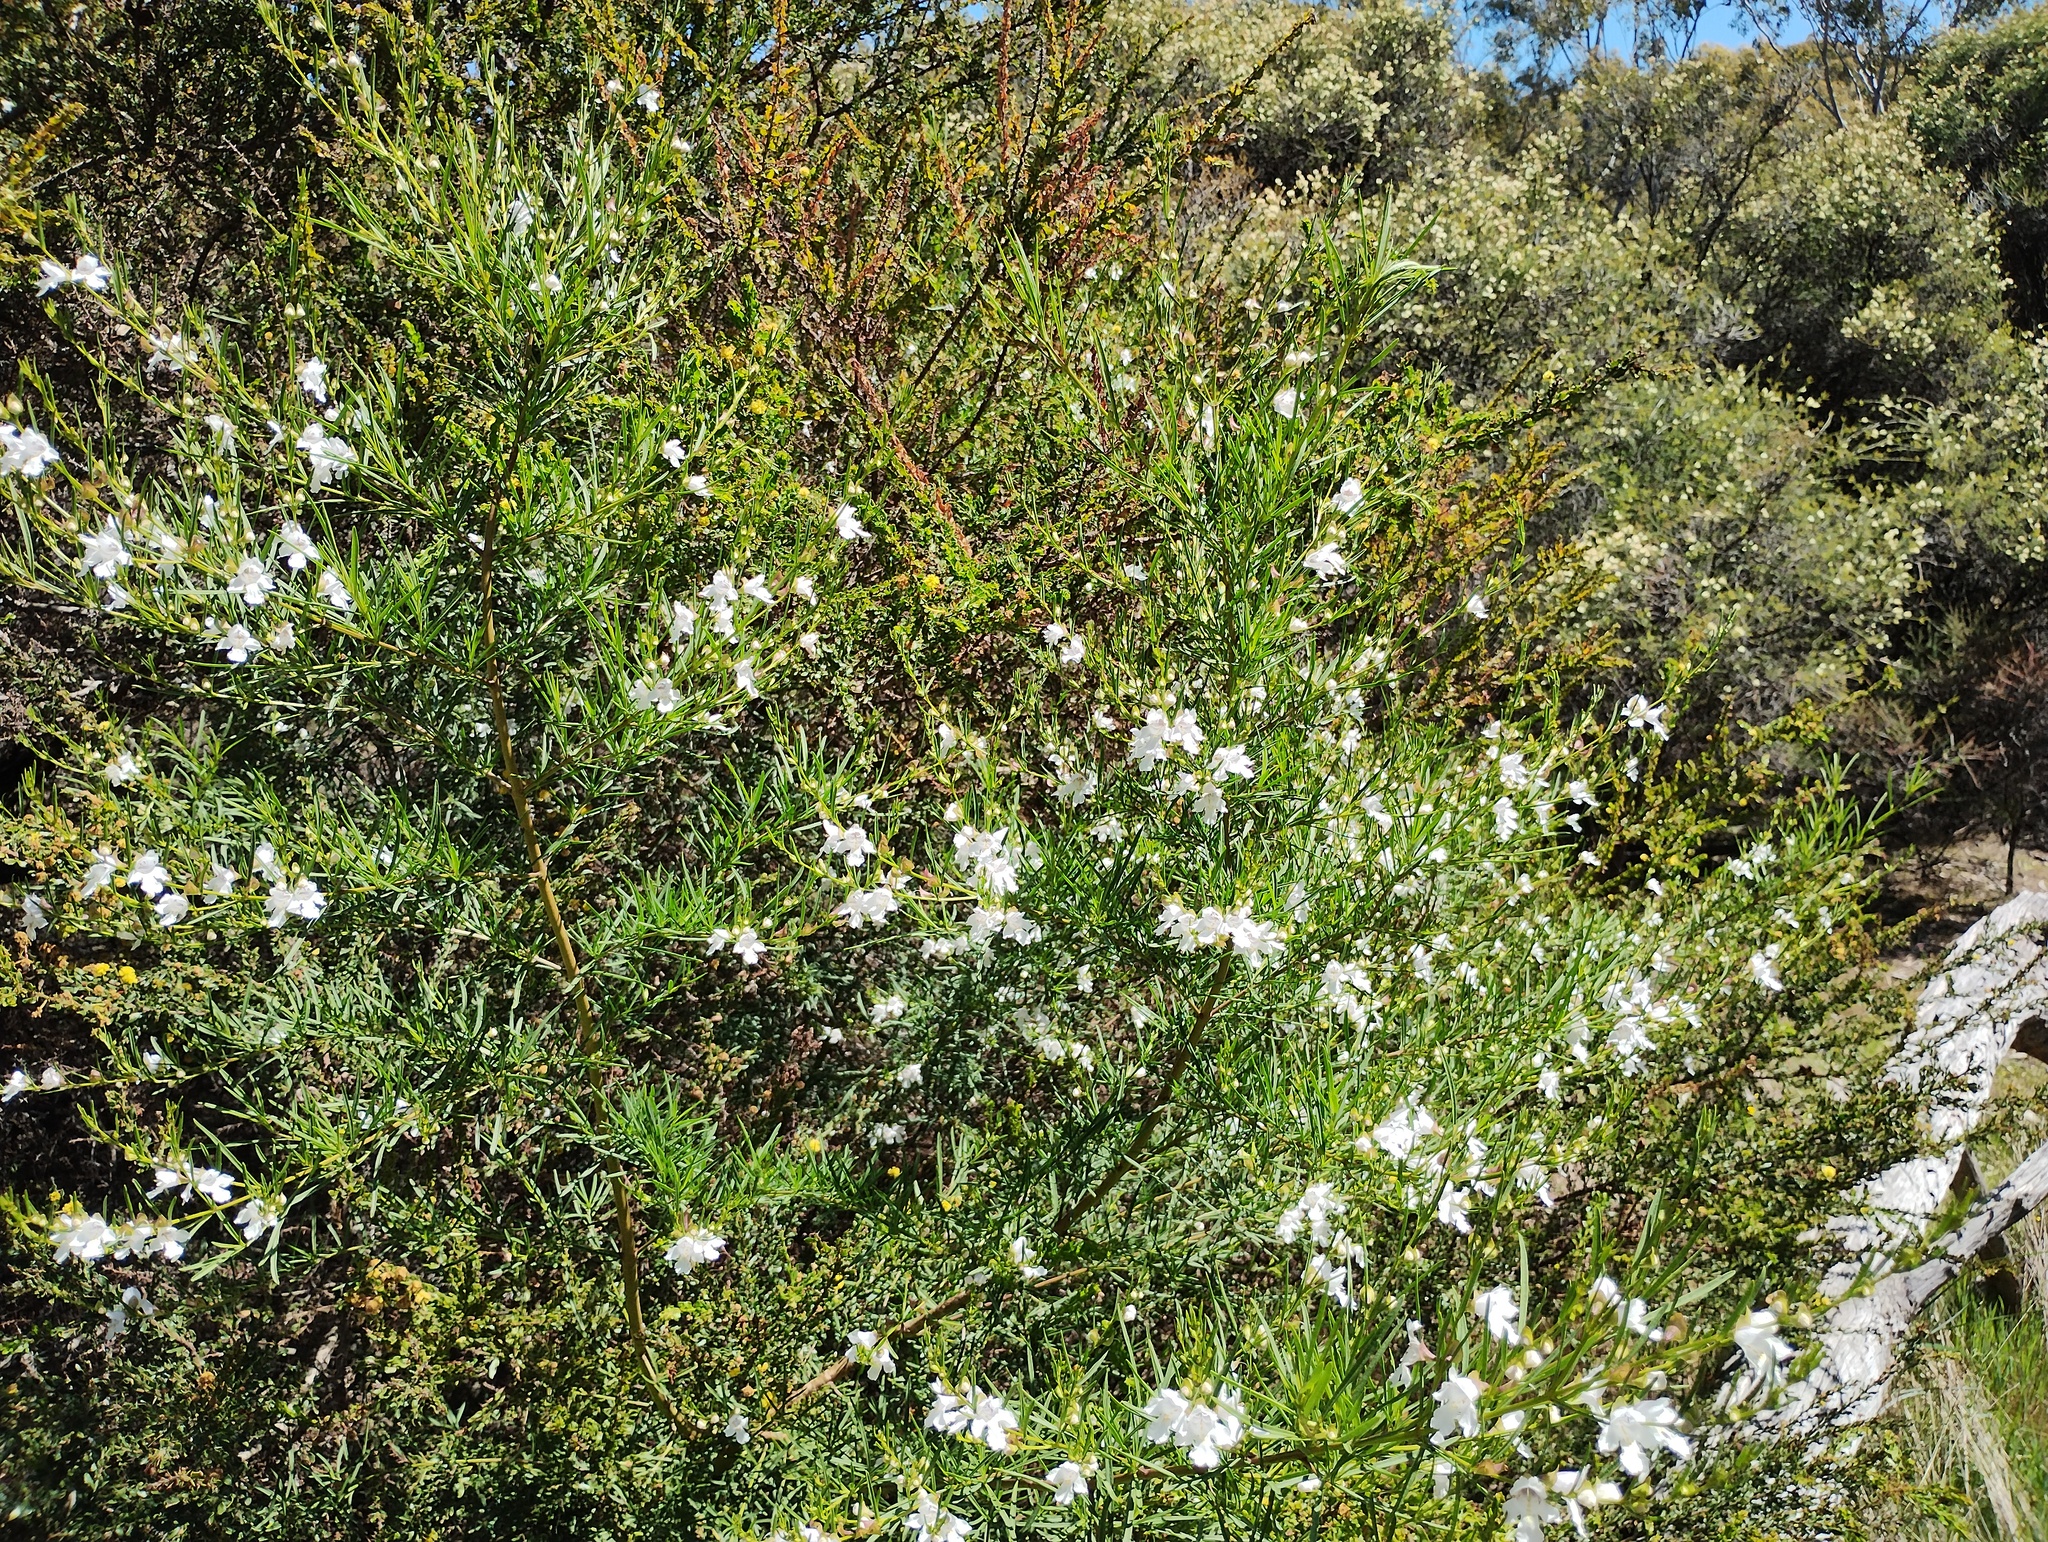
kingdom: Plantae
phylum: Tracheophyta
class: Magnoliopsida
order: Lamiales
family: Lamiaceae
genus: Prostanthera
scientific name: Prostanthera nivea
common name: Snowy mintbush
